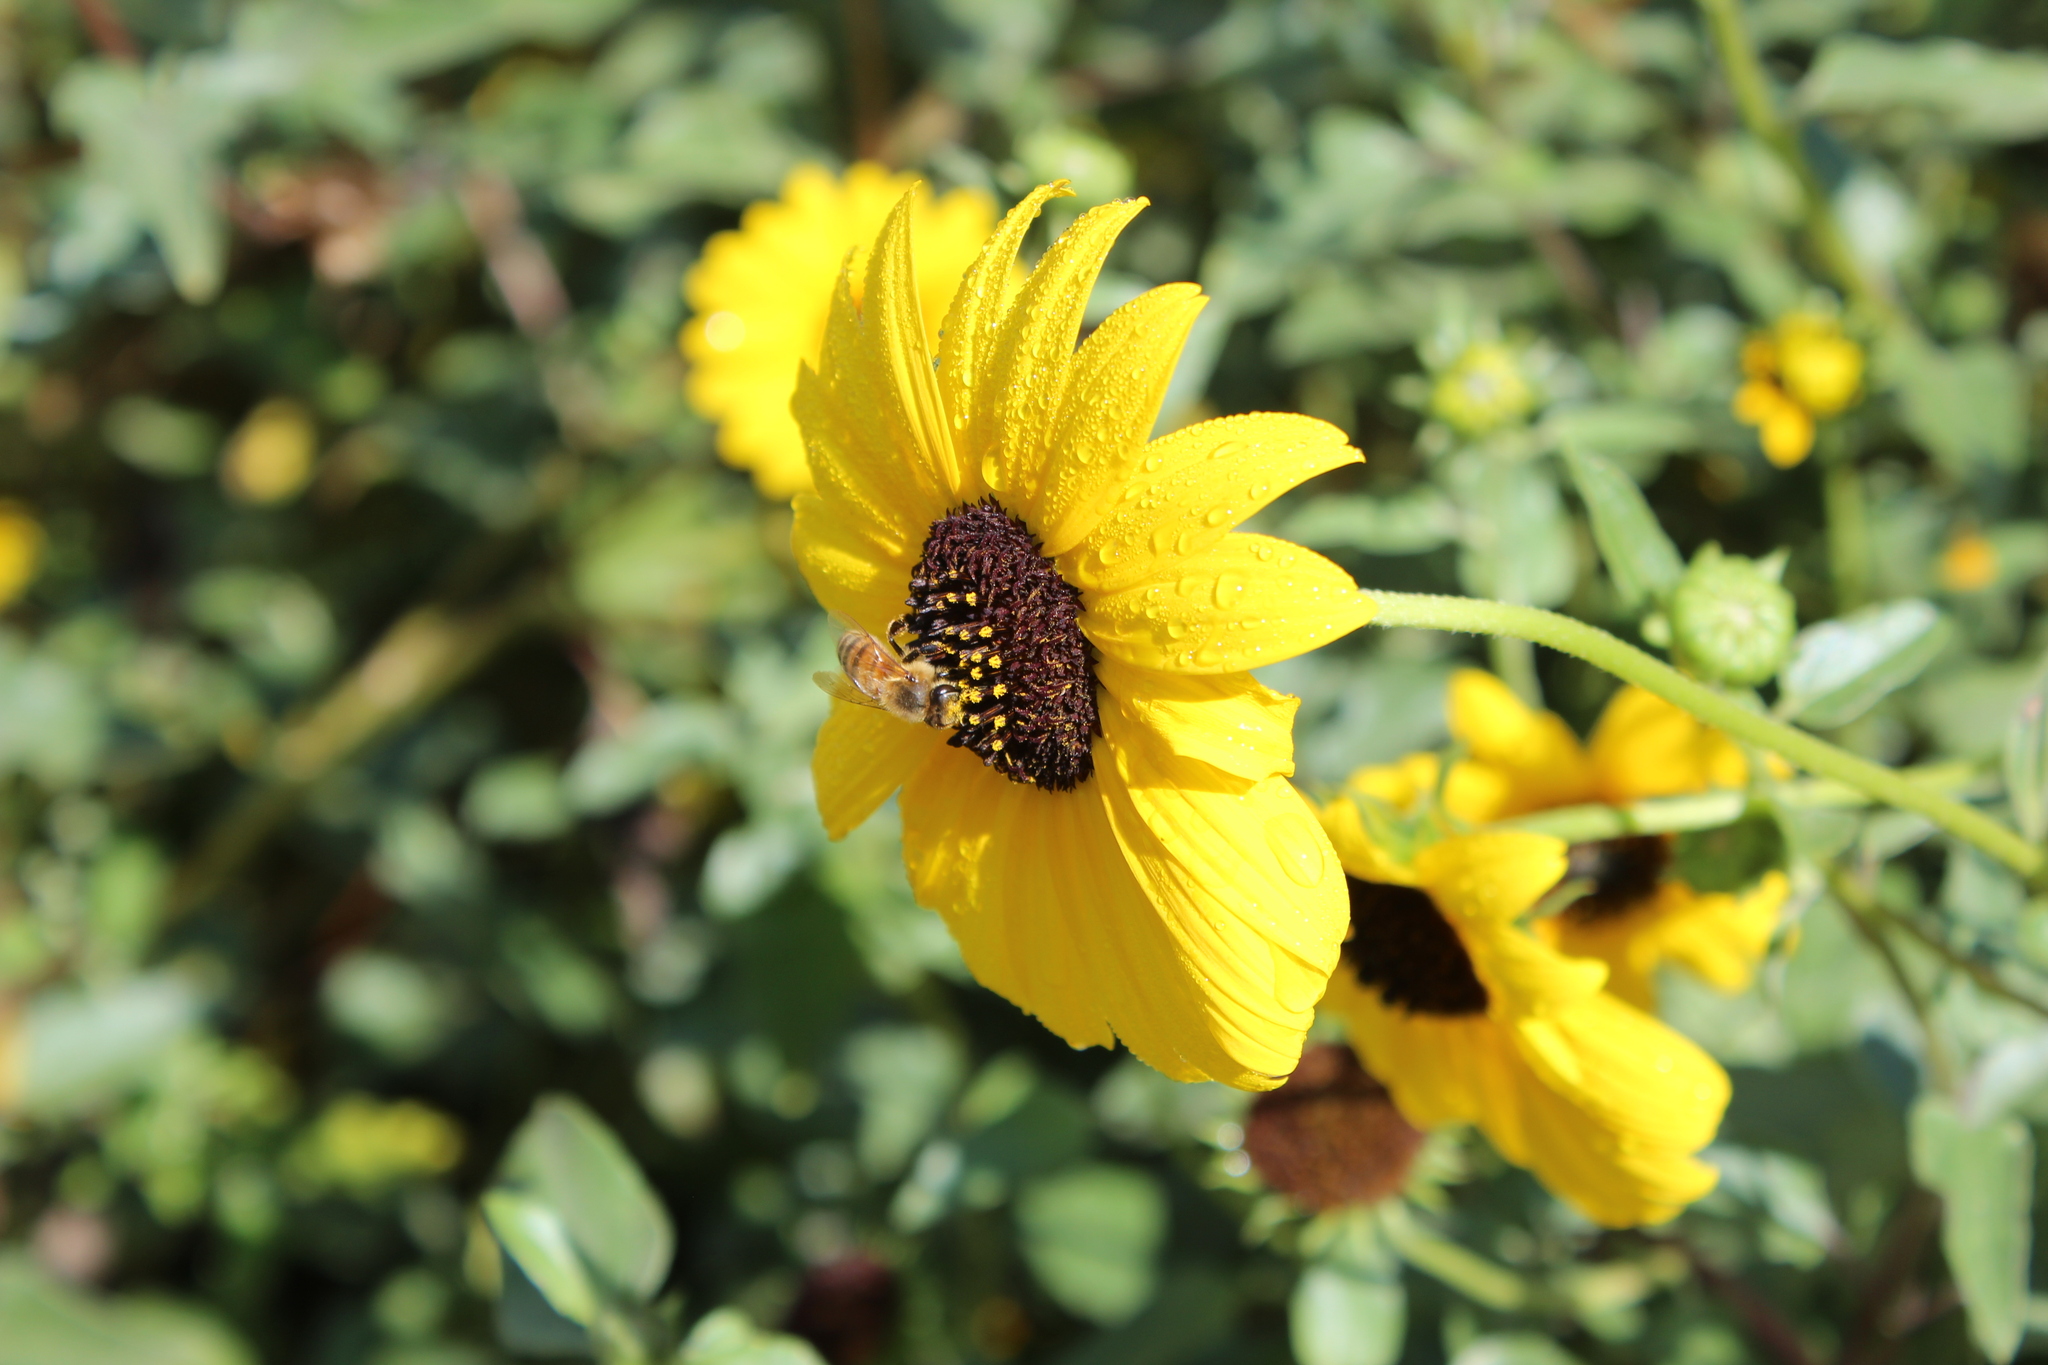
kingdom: Animalia
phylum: Arthropoda
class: Insecta
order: Hymenoptera
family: Apidae
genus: Apis
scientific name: Apis mellifera
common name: Honey bee
